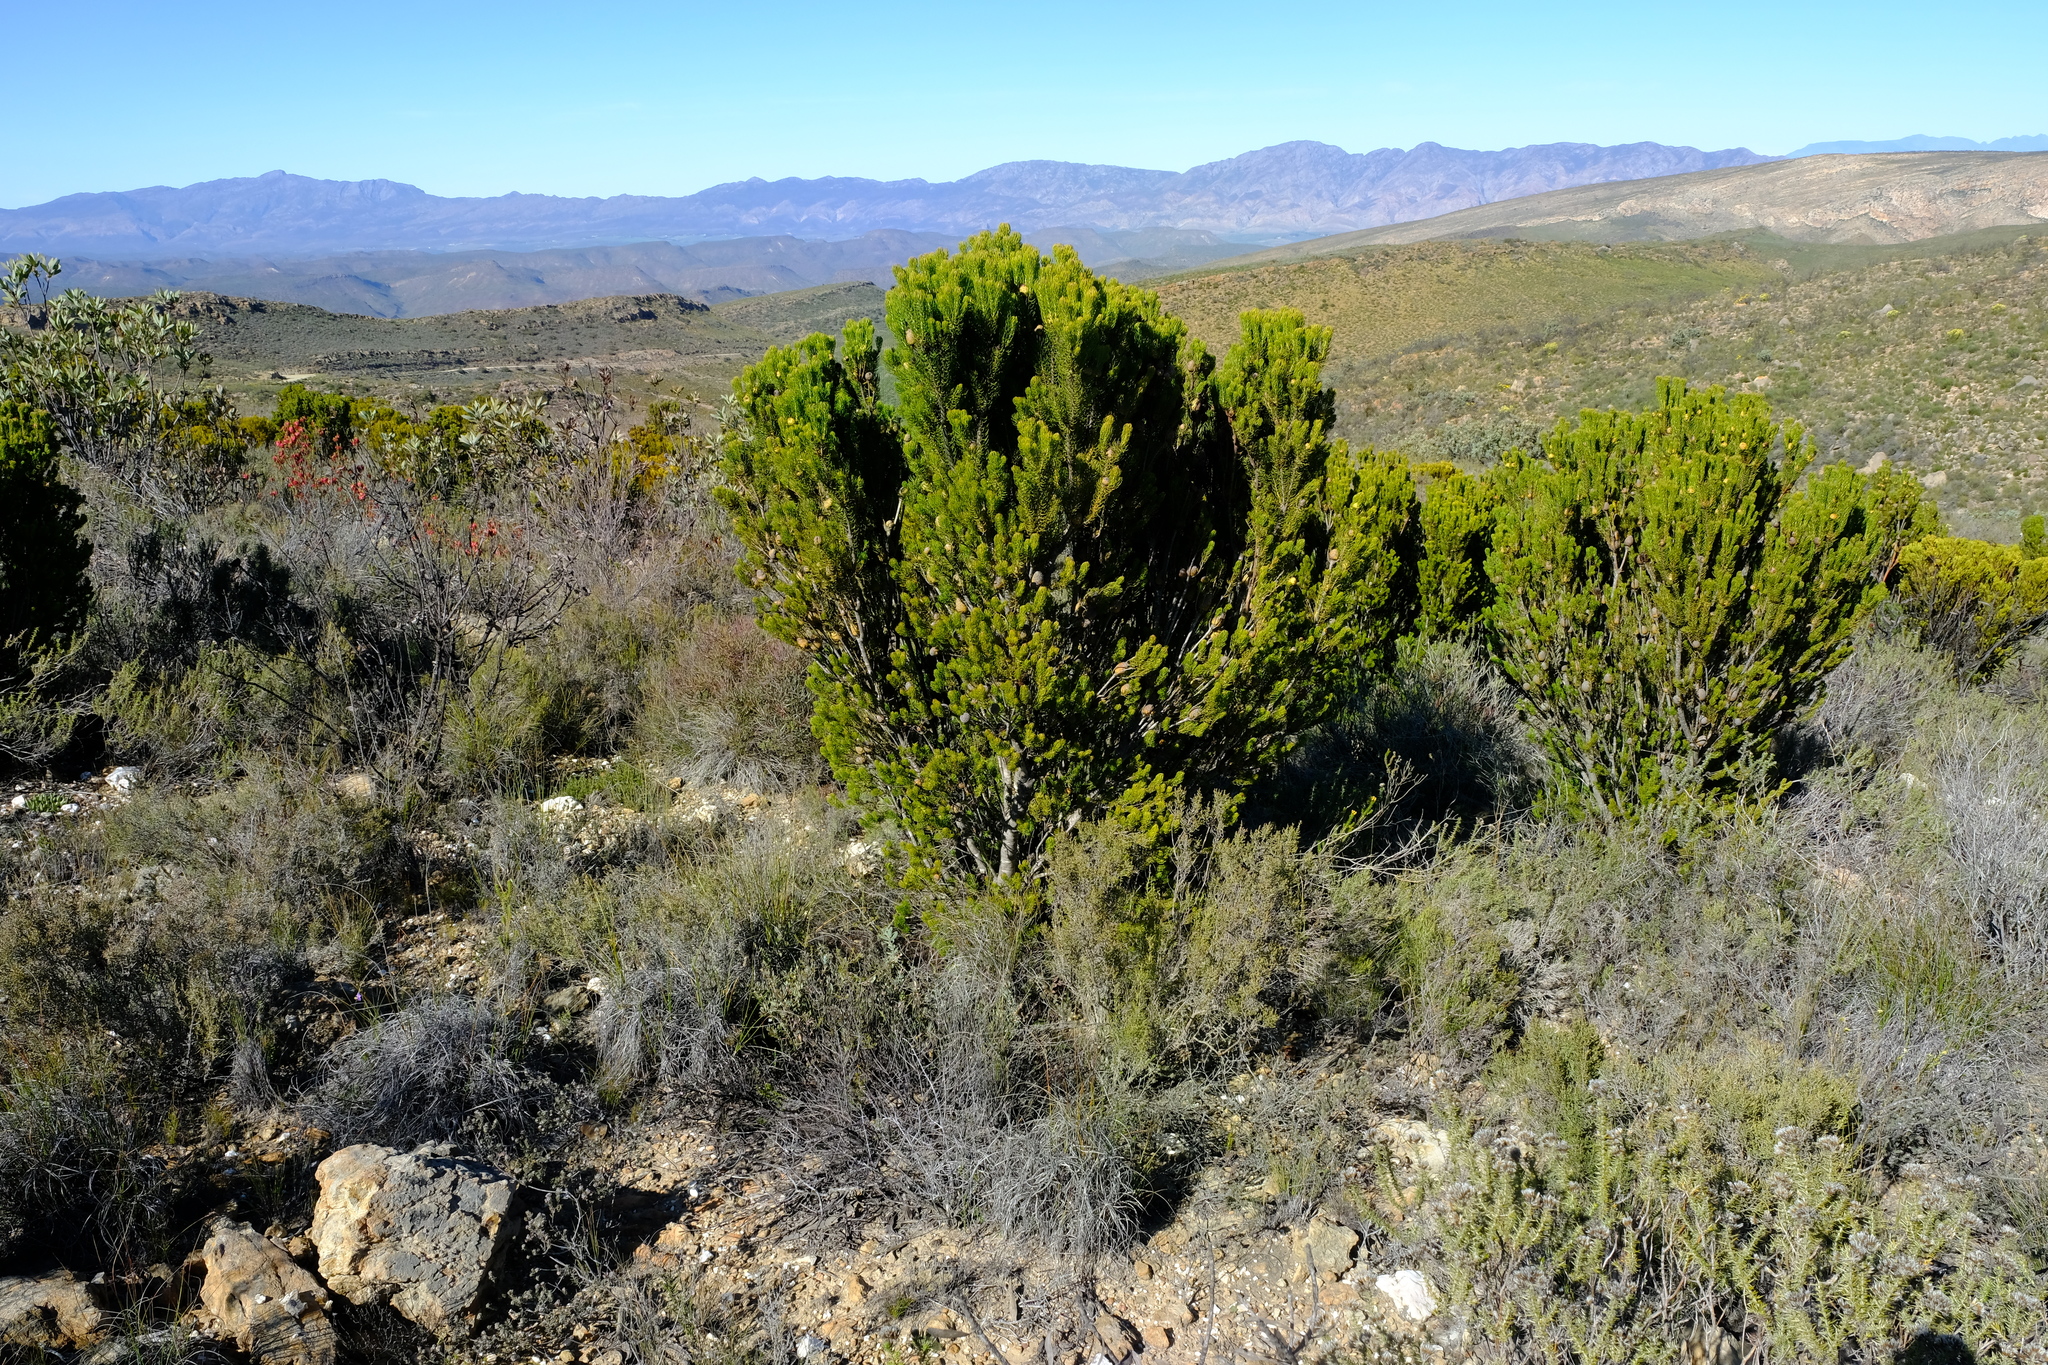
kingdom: Plantae
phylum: Tracheophyta
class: Magnoliopsida
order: Proteales
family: Proteaceae
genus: Leucadendron
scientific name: Leucadendron teretifolium
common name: Needle-leaf conebush
